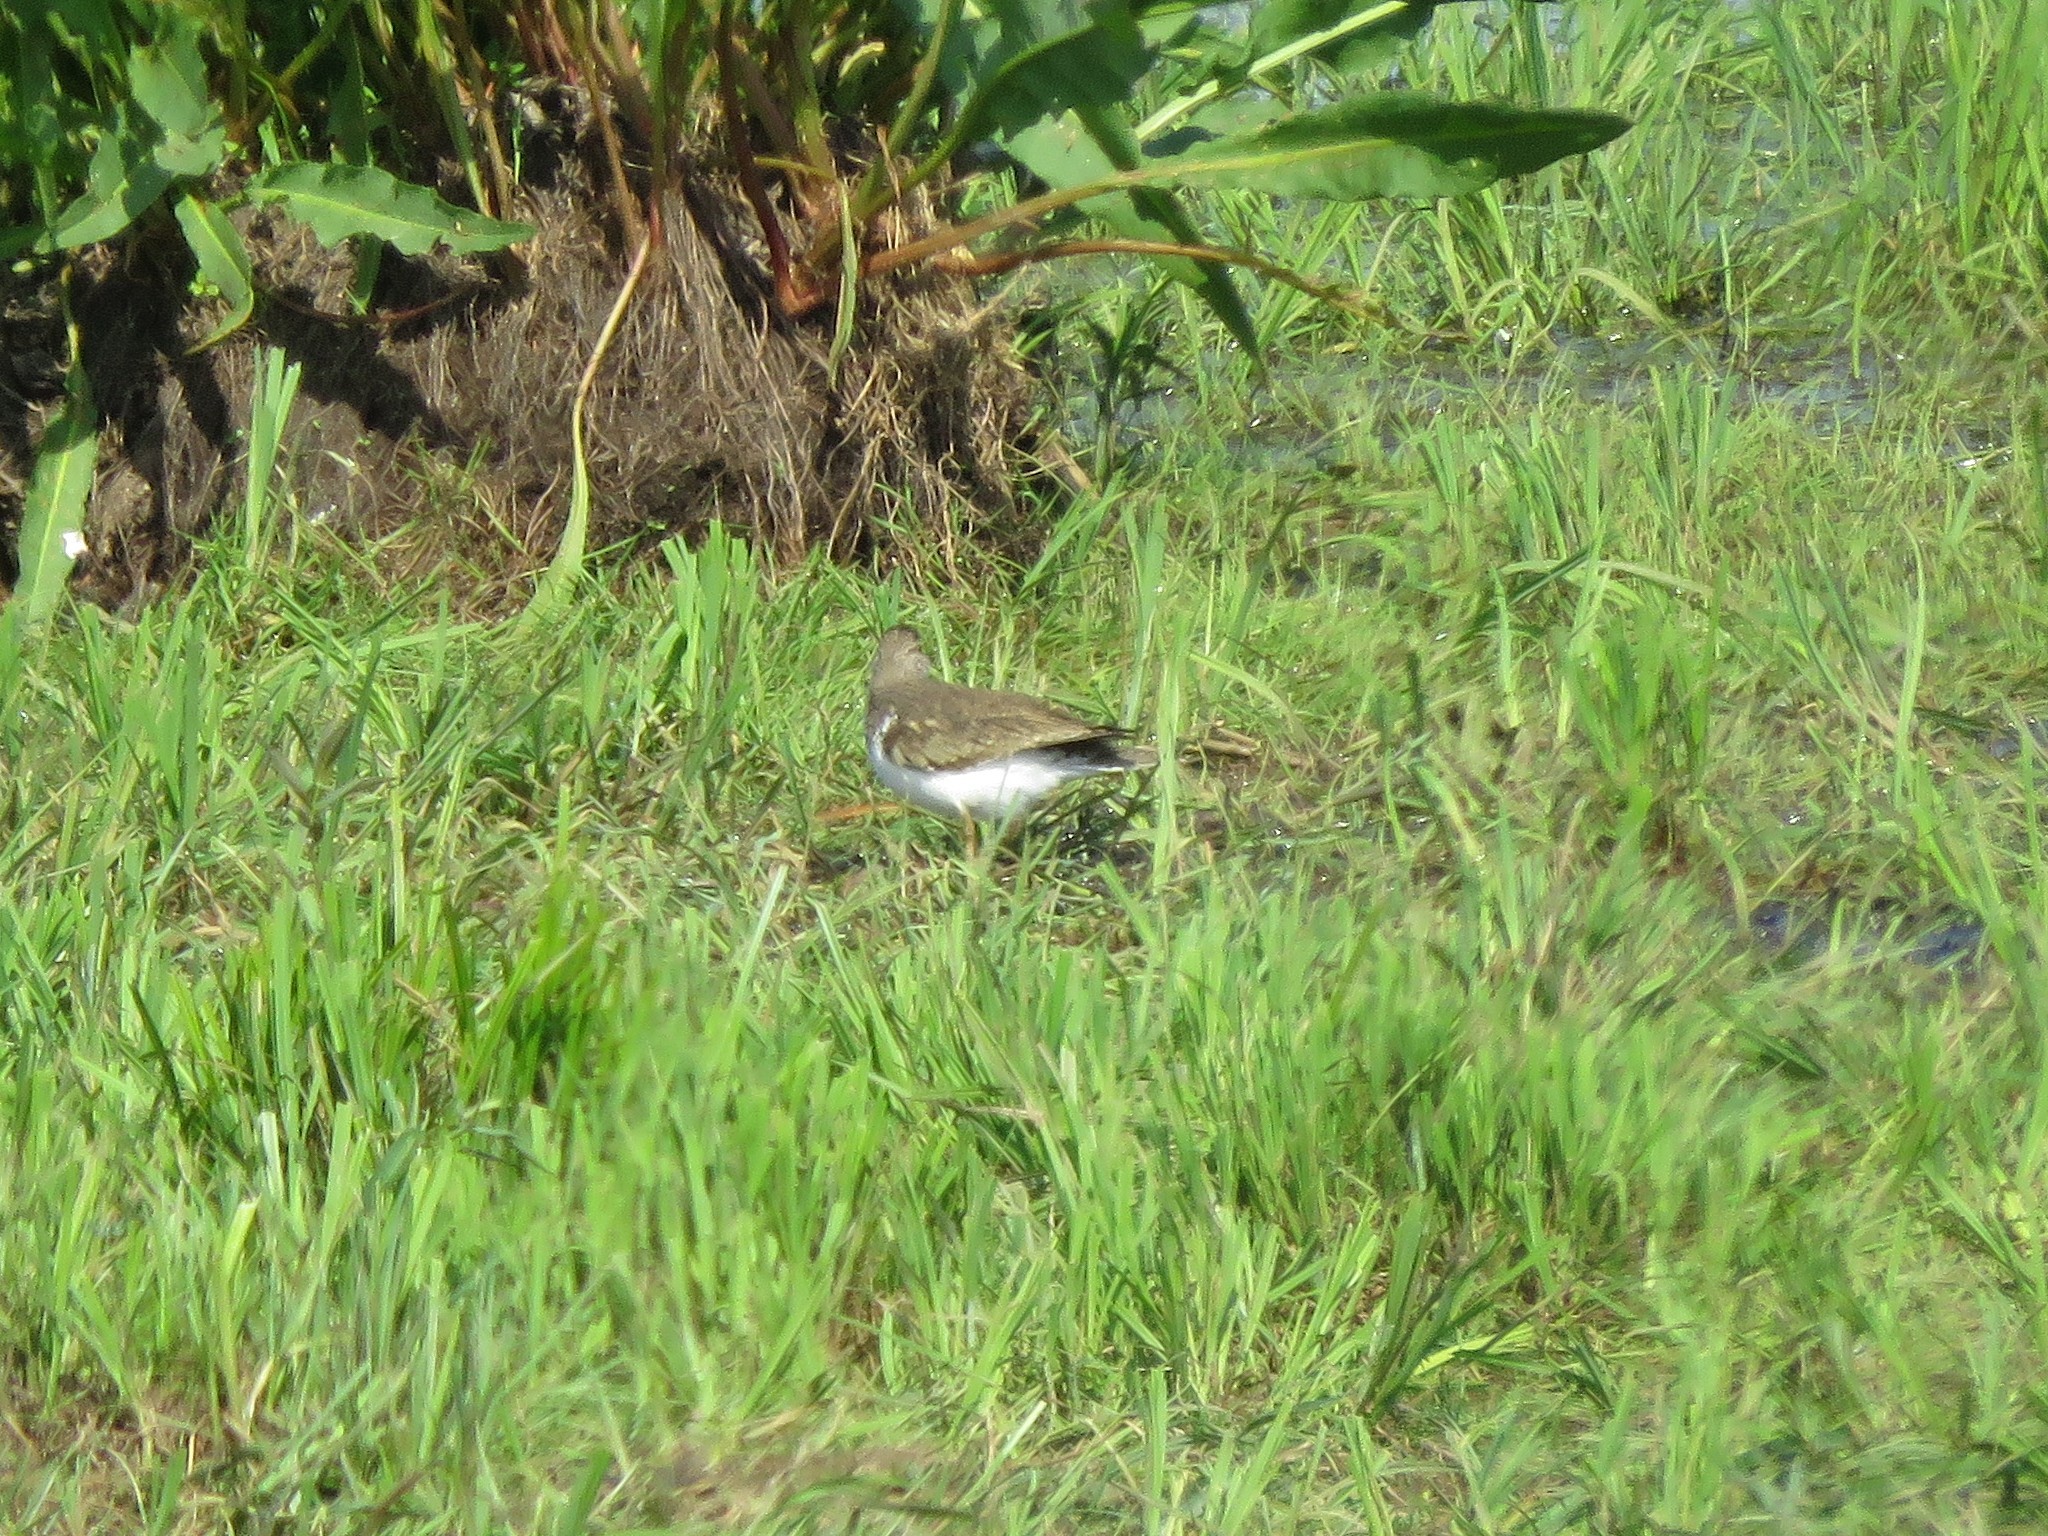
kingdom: Animalia
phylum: Chordata
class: Aves
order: Charadriiformes
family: Scolopacidae
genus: Actitis
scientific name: Actitis hypoleucos
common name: Common sandpiper
